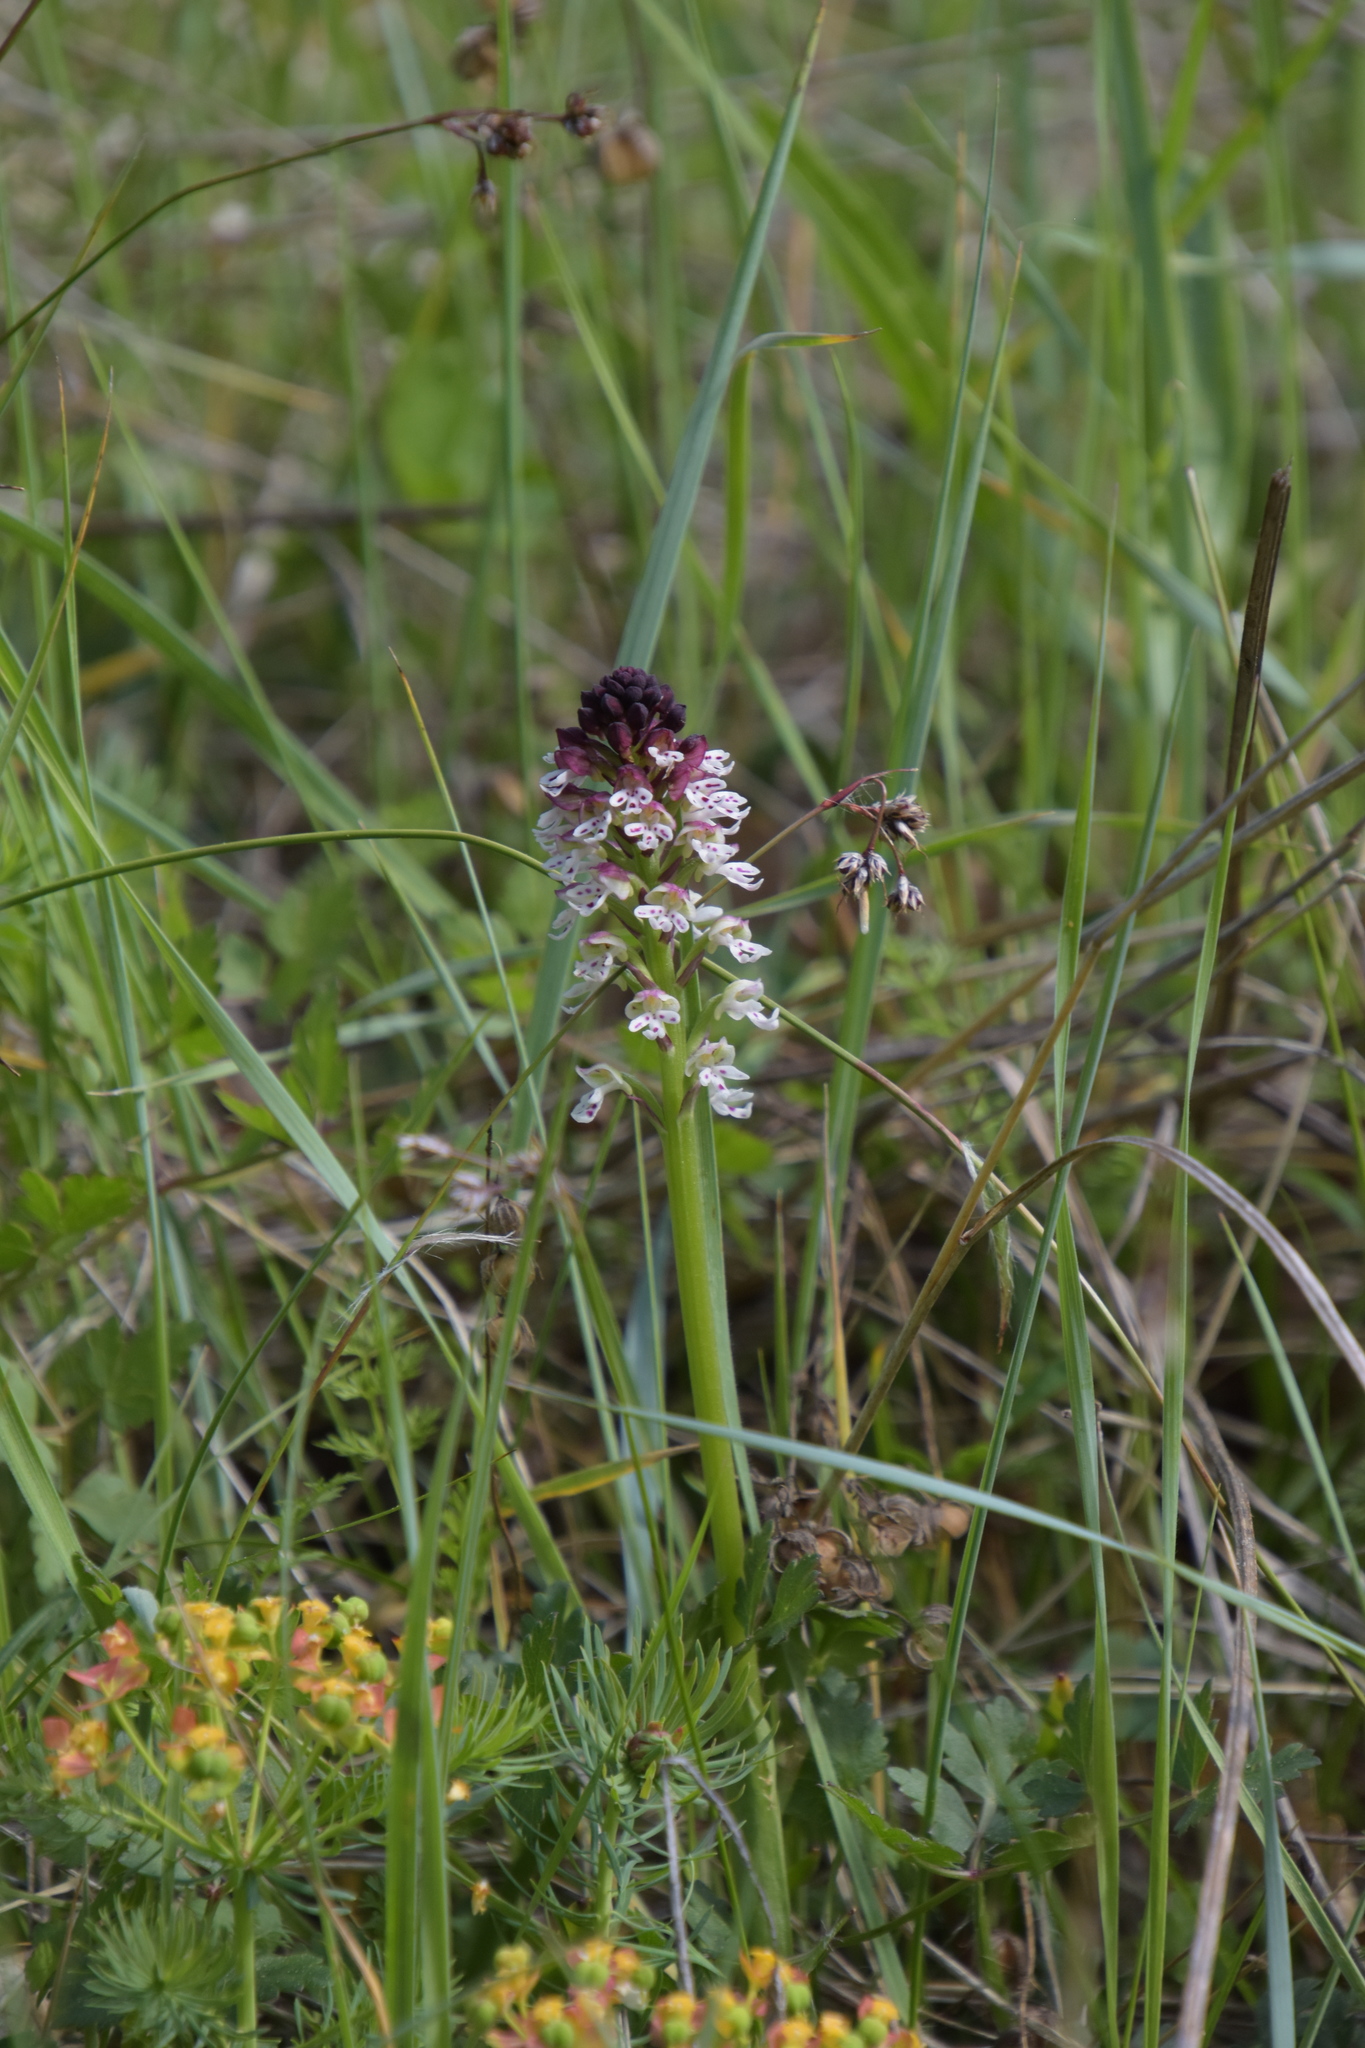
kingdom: Plantae
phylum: Tracheophyta
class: Liliopsida
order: Asparagales
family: Orchidaceae
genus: Neotinea
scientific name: Neotinea ustulata
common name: Burnt orchid
